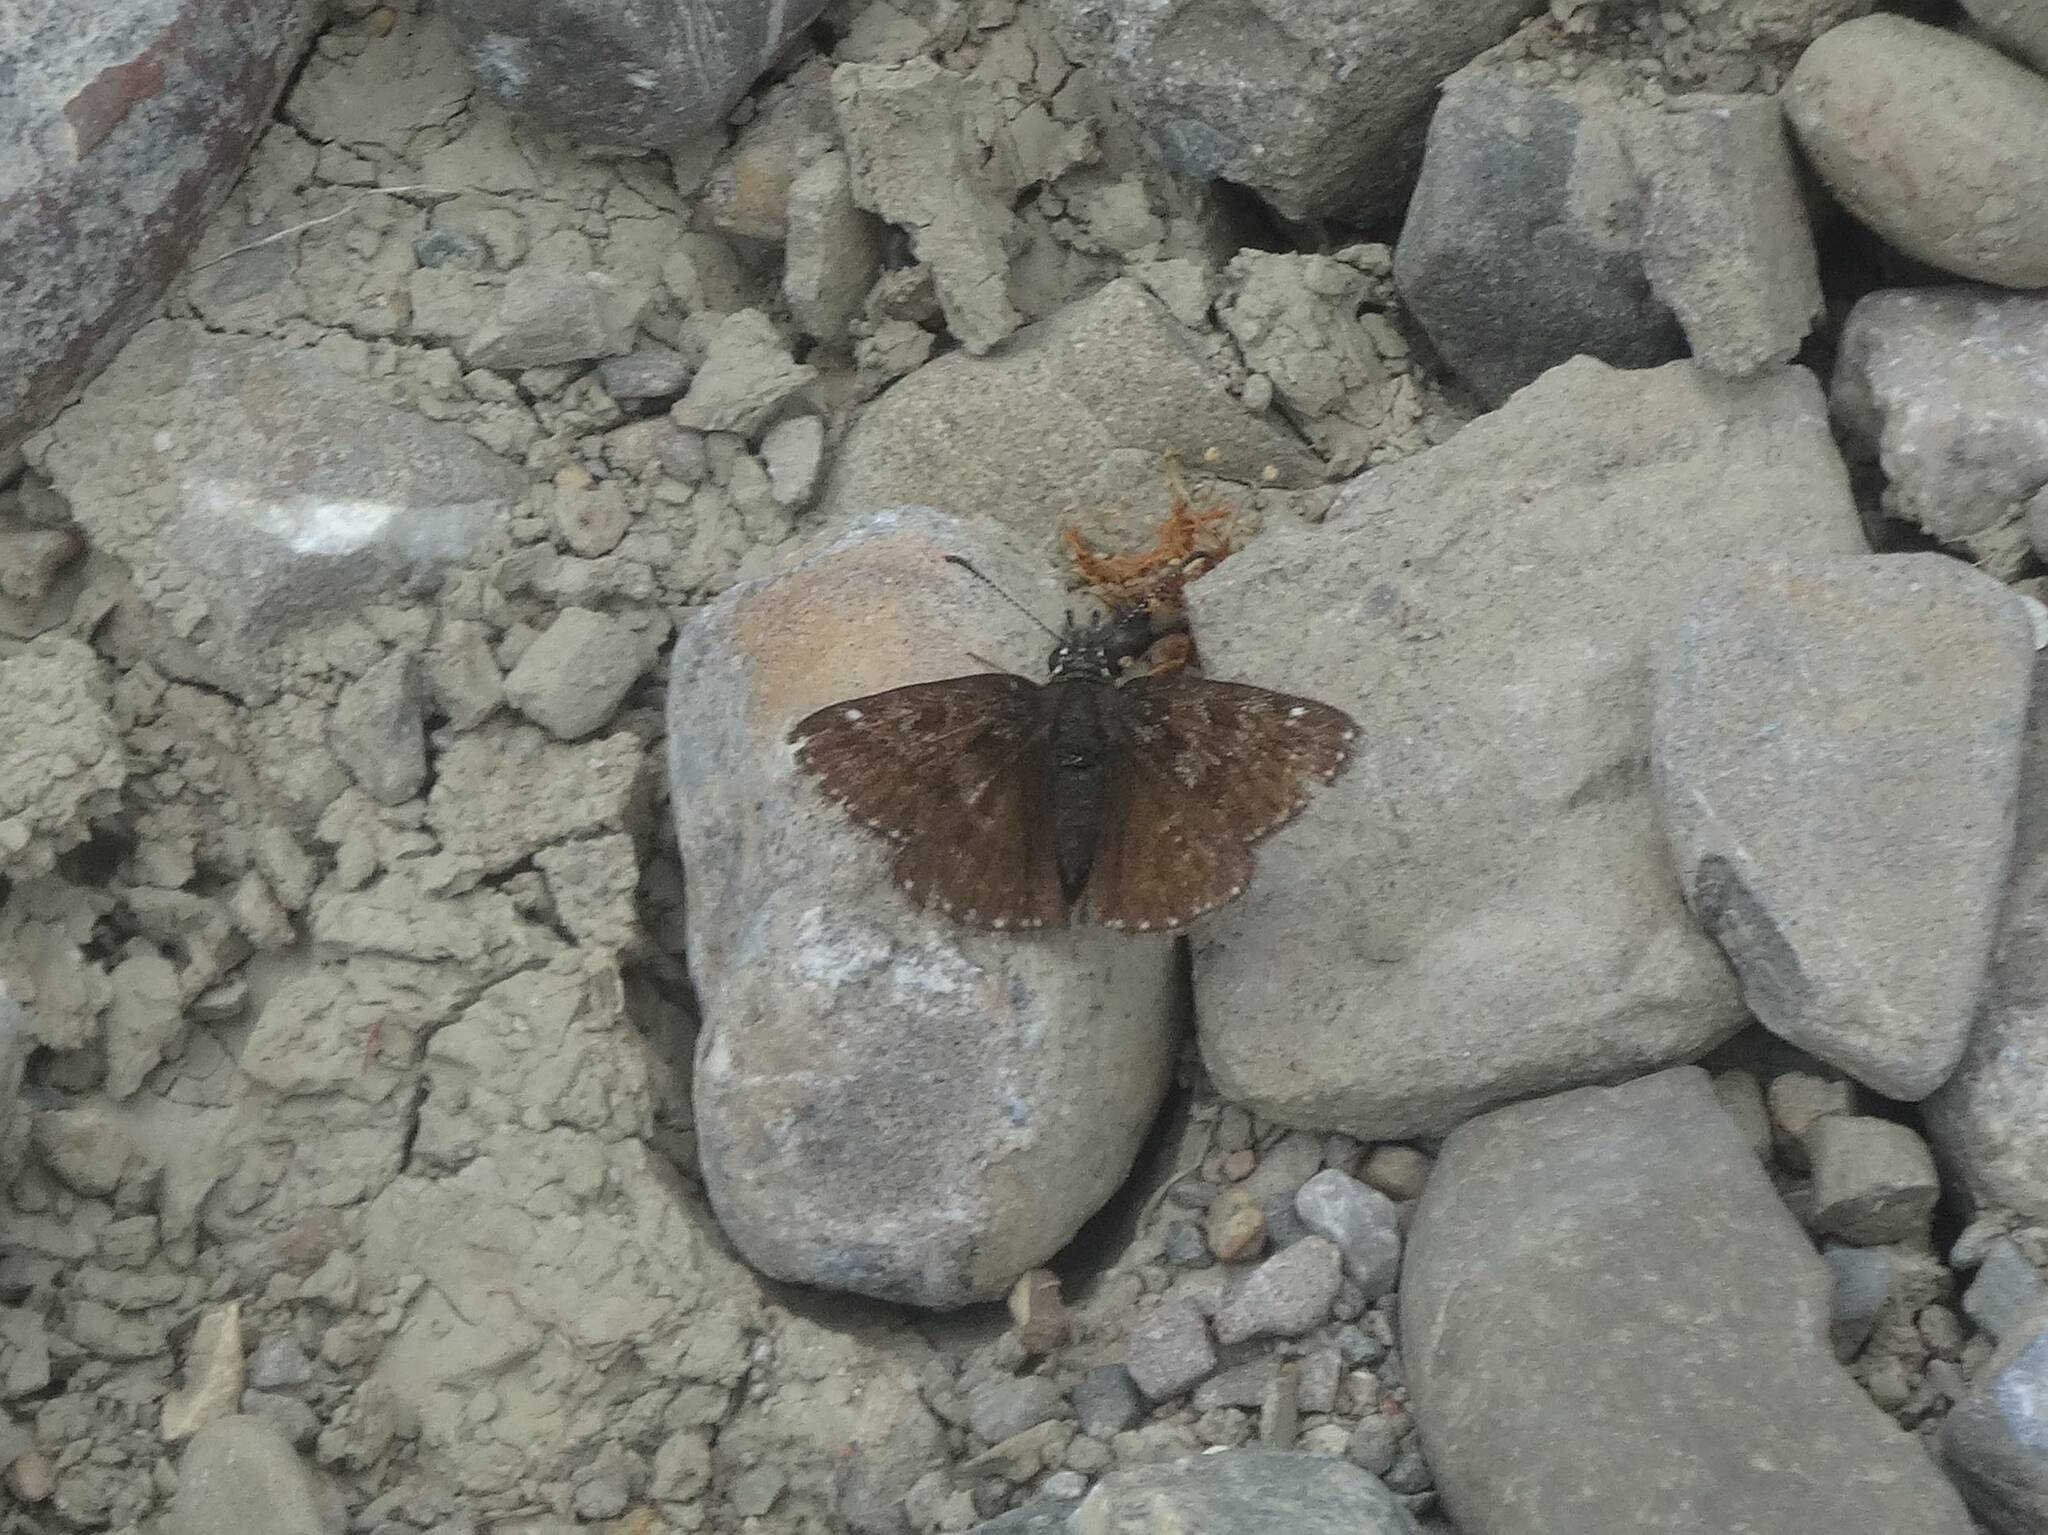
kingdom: Animalia
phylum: Arthropoda
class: Insecta
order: Lepidoptera
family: Hesperiidae
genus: Erynnis
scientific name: Erynnis tages
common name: Dingy skipper
